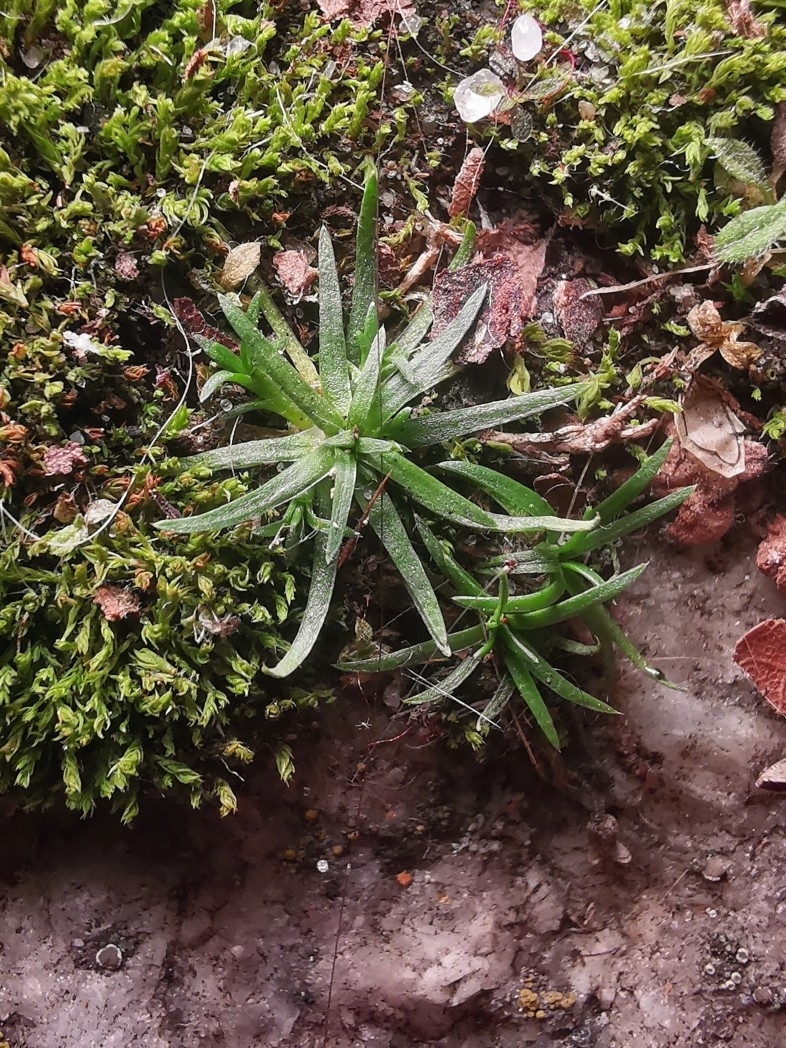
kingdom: Plantae
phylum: Tracheophyta
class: Magnoliopsida
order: Caryophyllales
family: Caryophyllaceae
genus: Sagina
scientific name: Sagina procumbens
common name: Procumbent pearlwort
